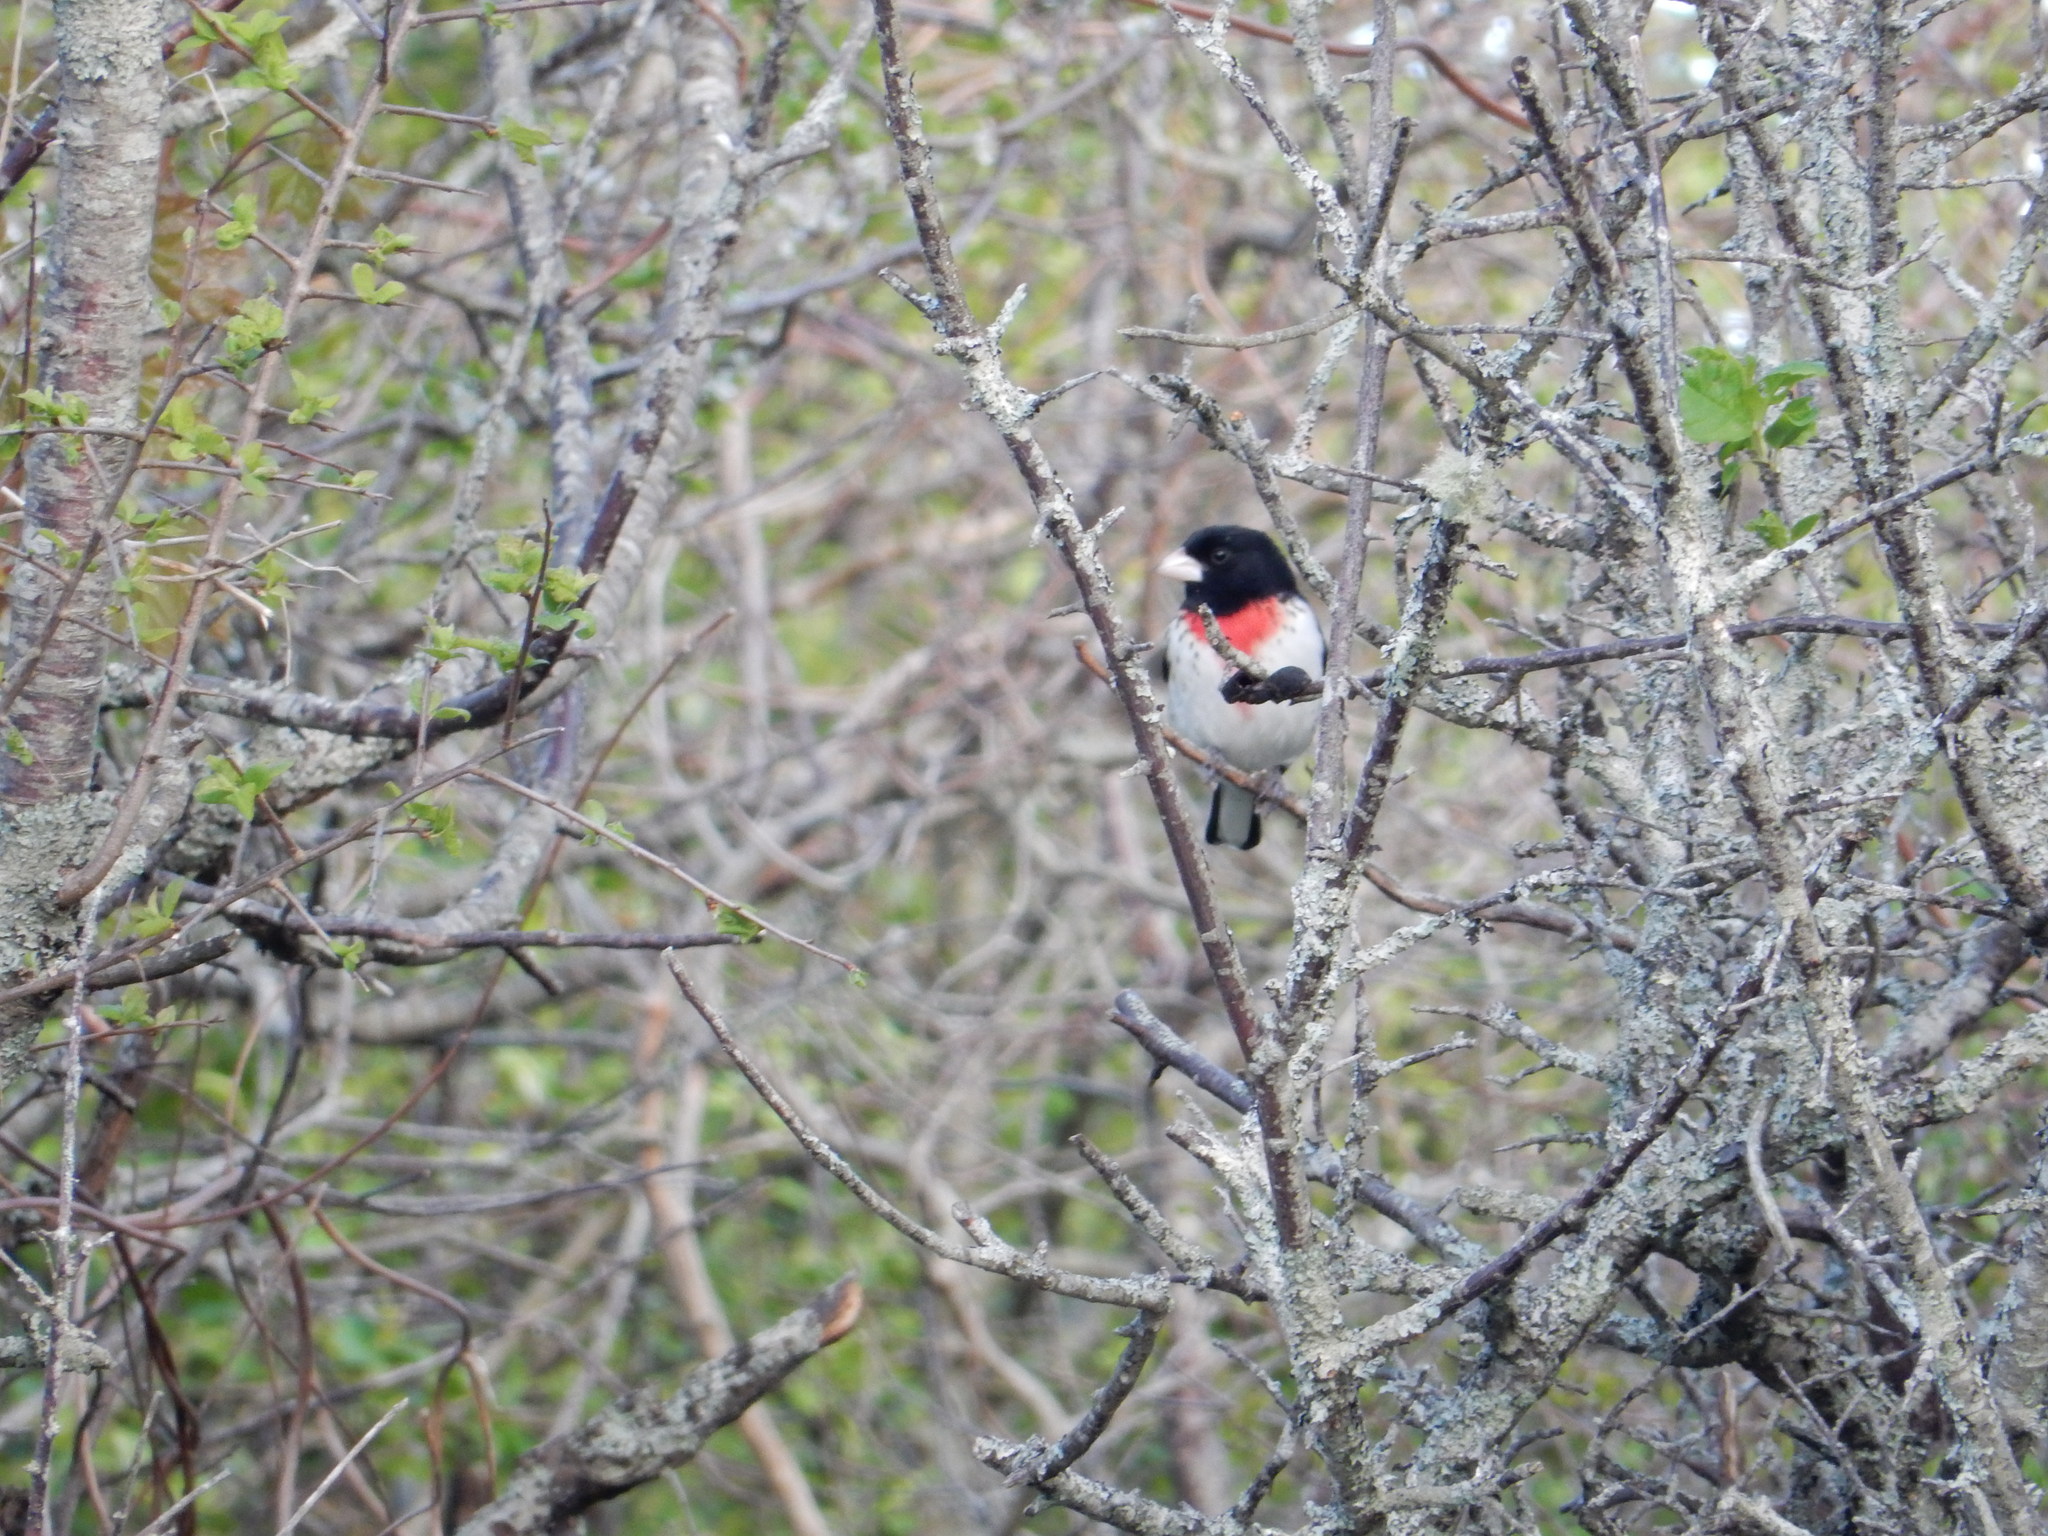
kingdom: Animalia
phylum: Chordata
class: Aves
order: Passeriformes
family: Cardinalidae
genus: Pheucticus
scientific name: Pheucticus ludovicianus
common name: Rose-breasted grosbeak
